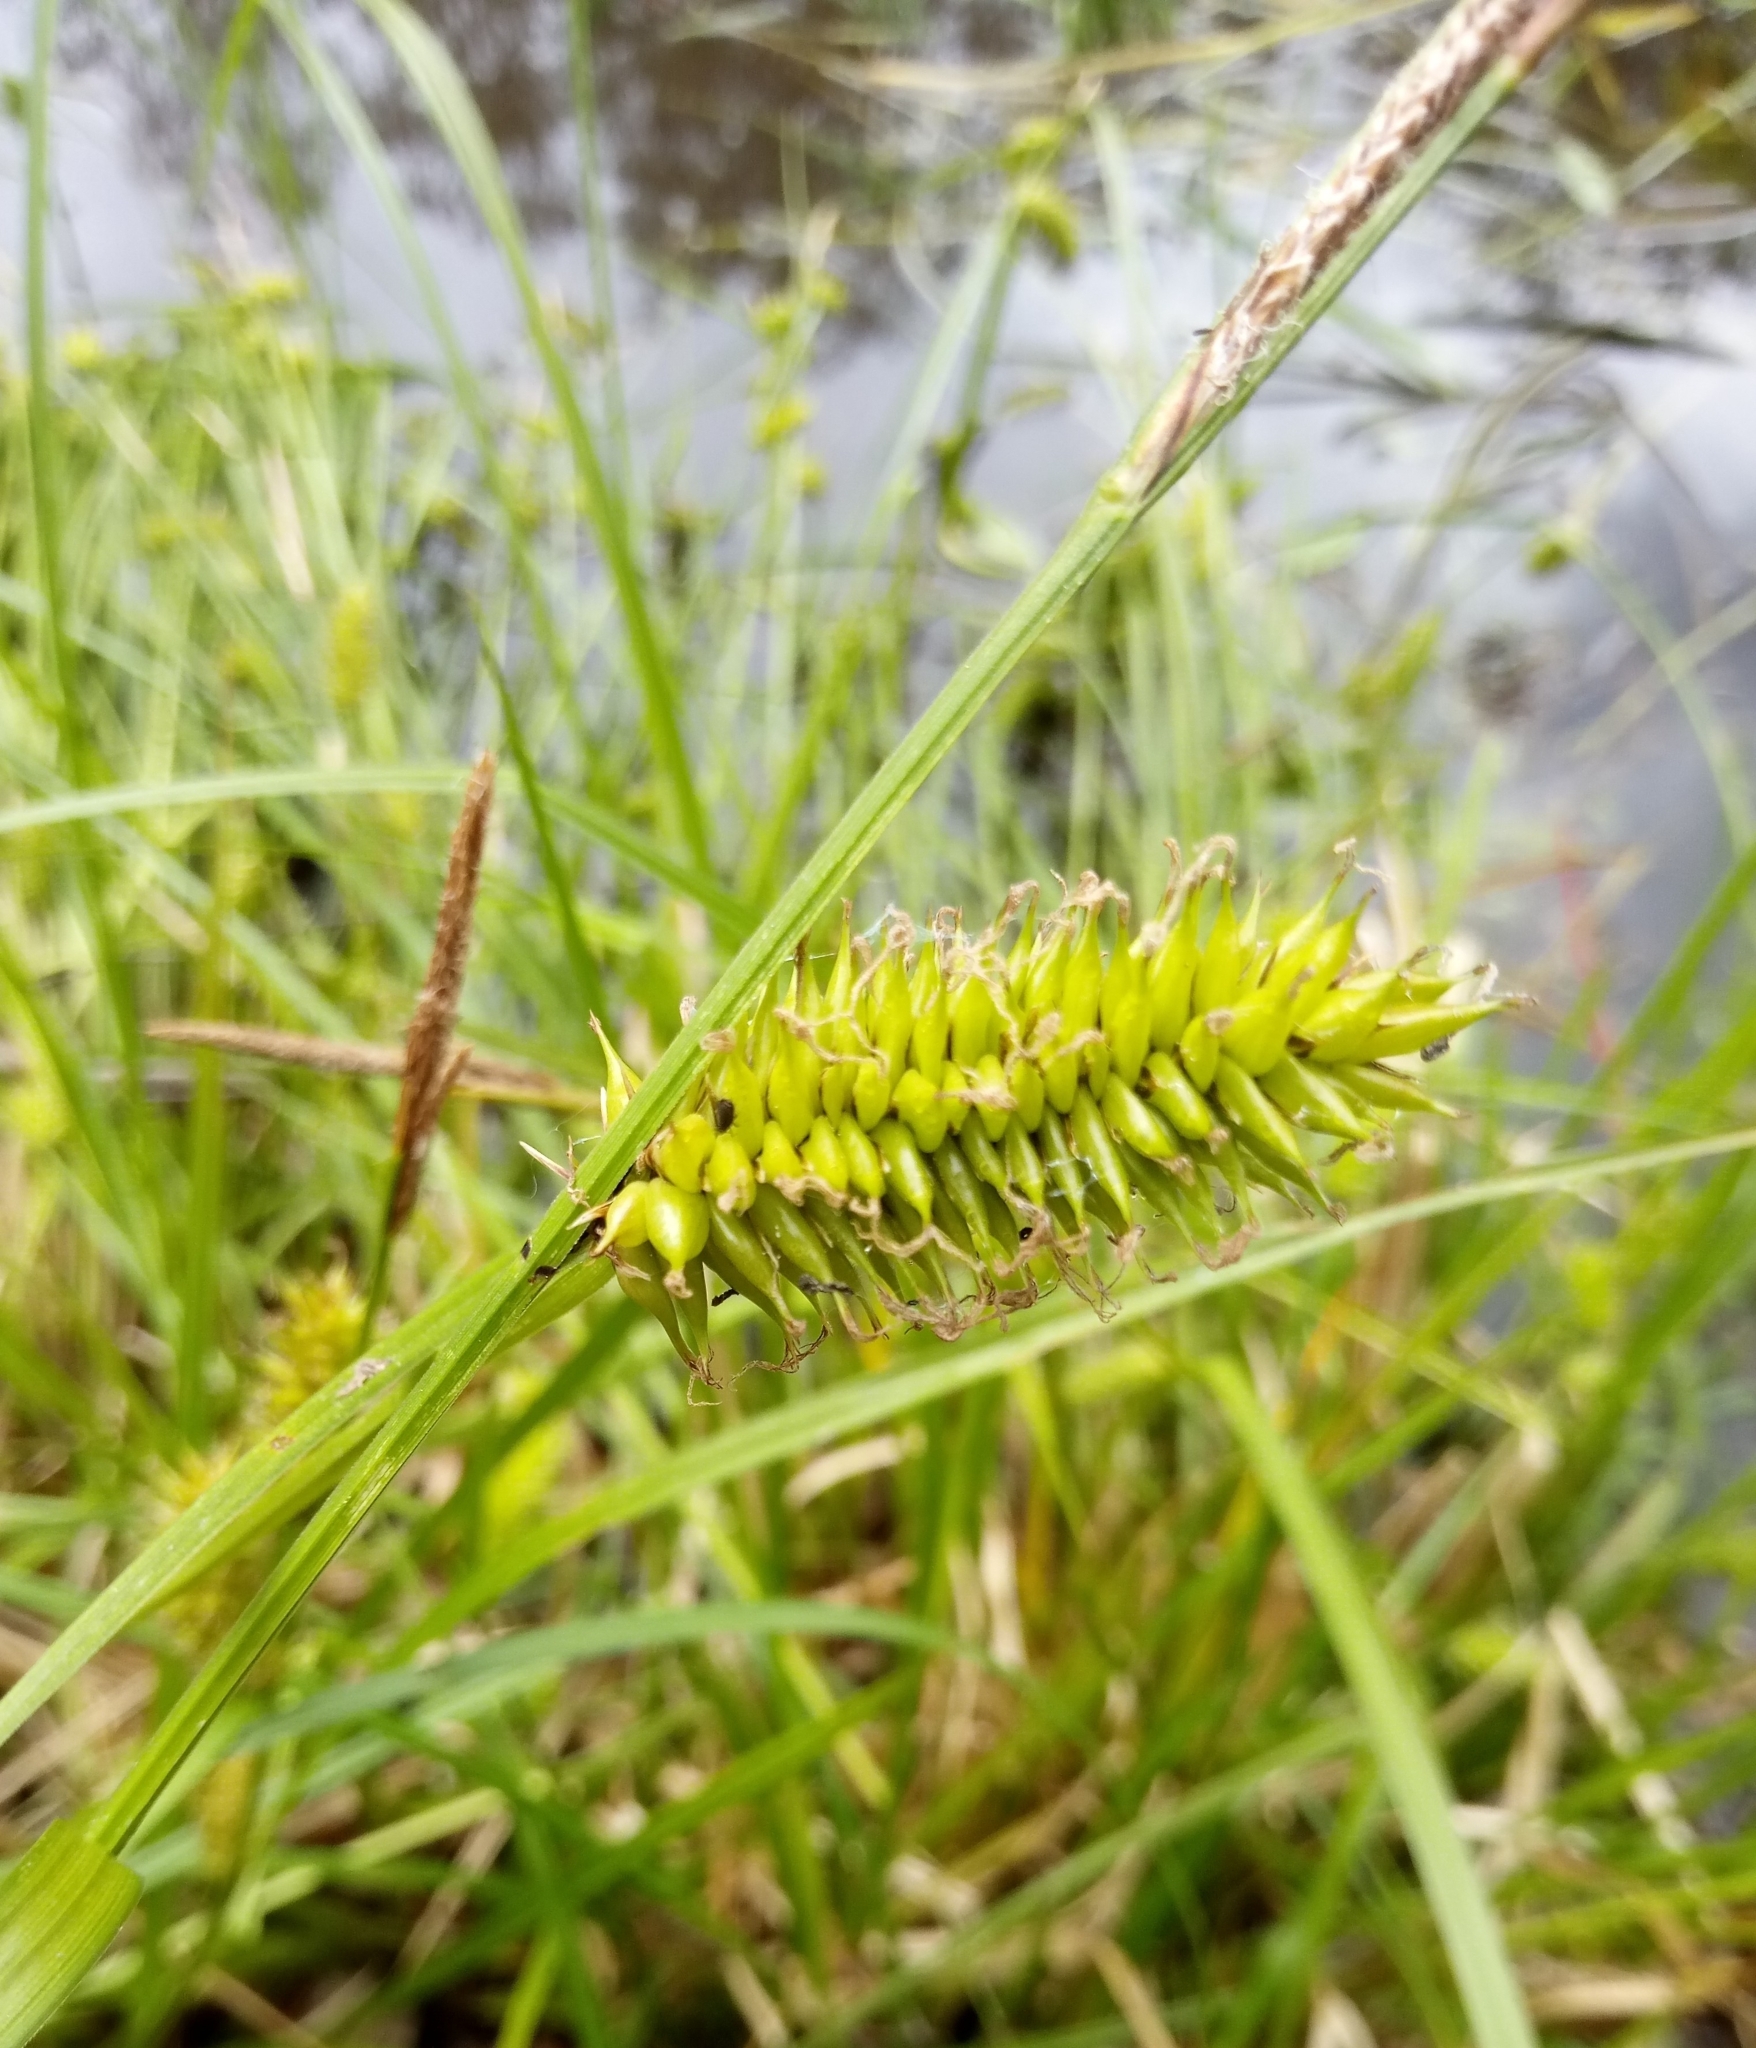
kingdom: Plantae
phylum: Tracheophyta
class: Liliopsida
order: Poales
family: Cyperaceae
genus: Carex
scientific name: Carex vesicaria
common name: Bladder-sedge
